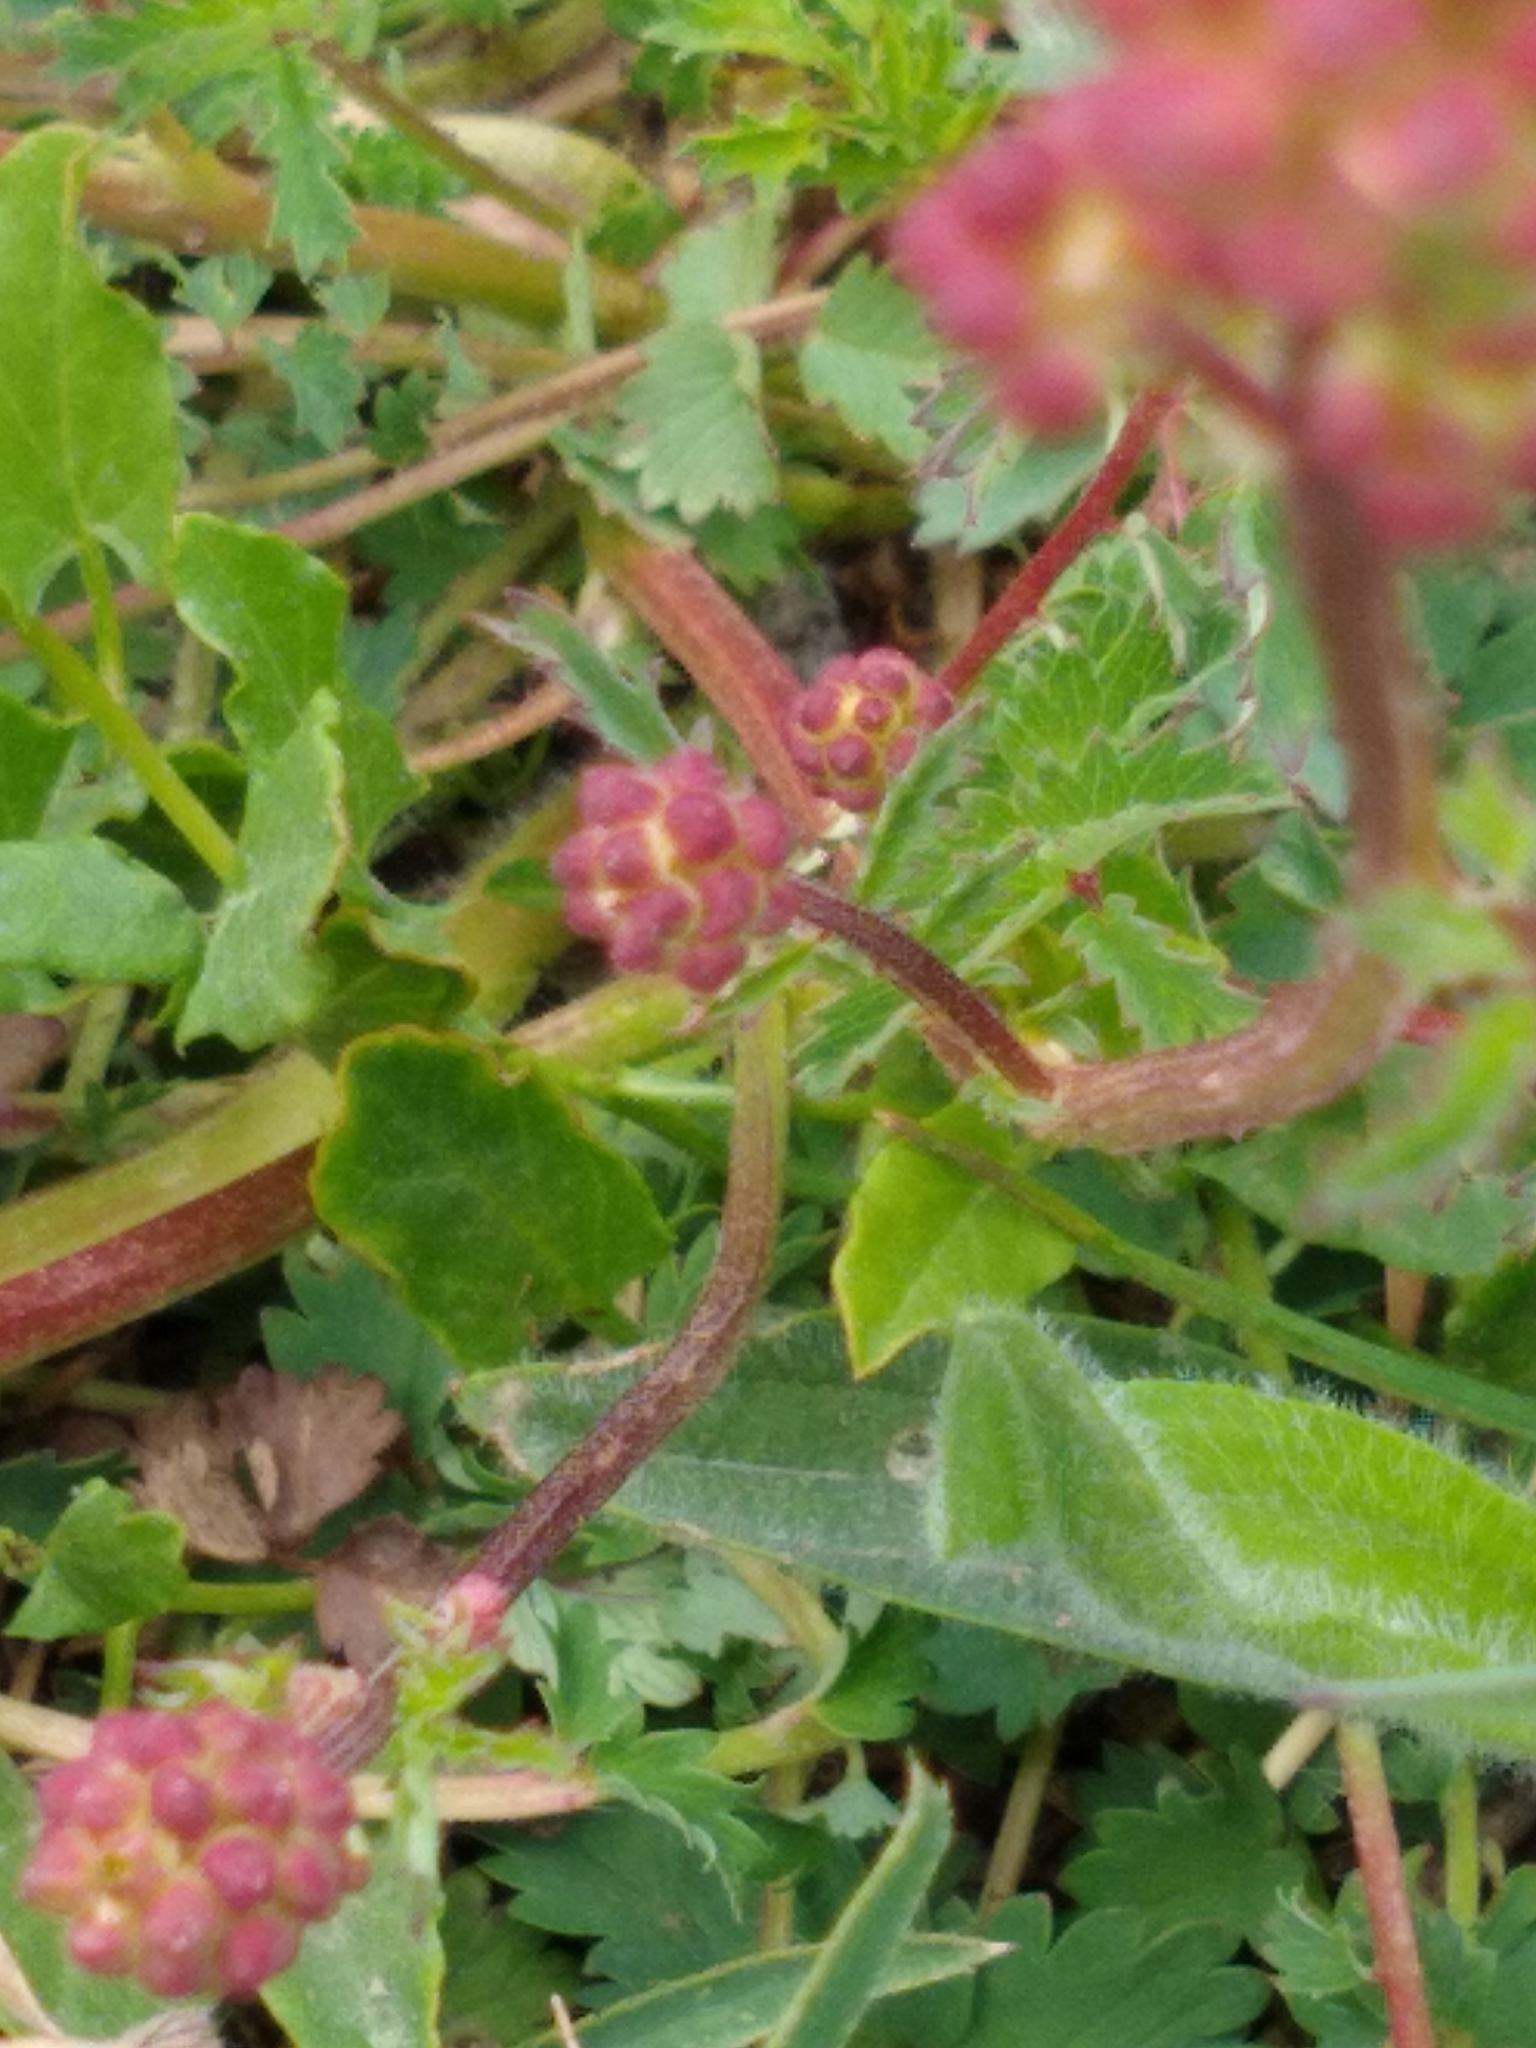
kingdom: Plantae
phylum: Tracheophyta
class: Magnoliopsida
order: Rosales
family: Rosaceae
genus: Poterium
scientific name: Poterium sanguisorba
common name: Salad burnet
